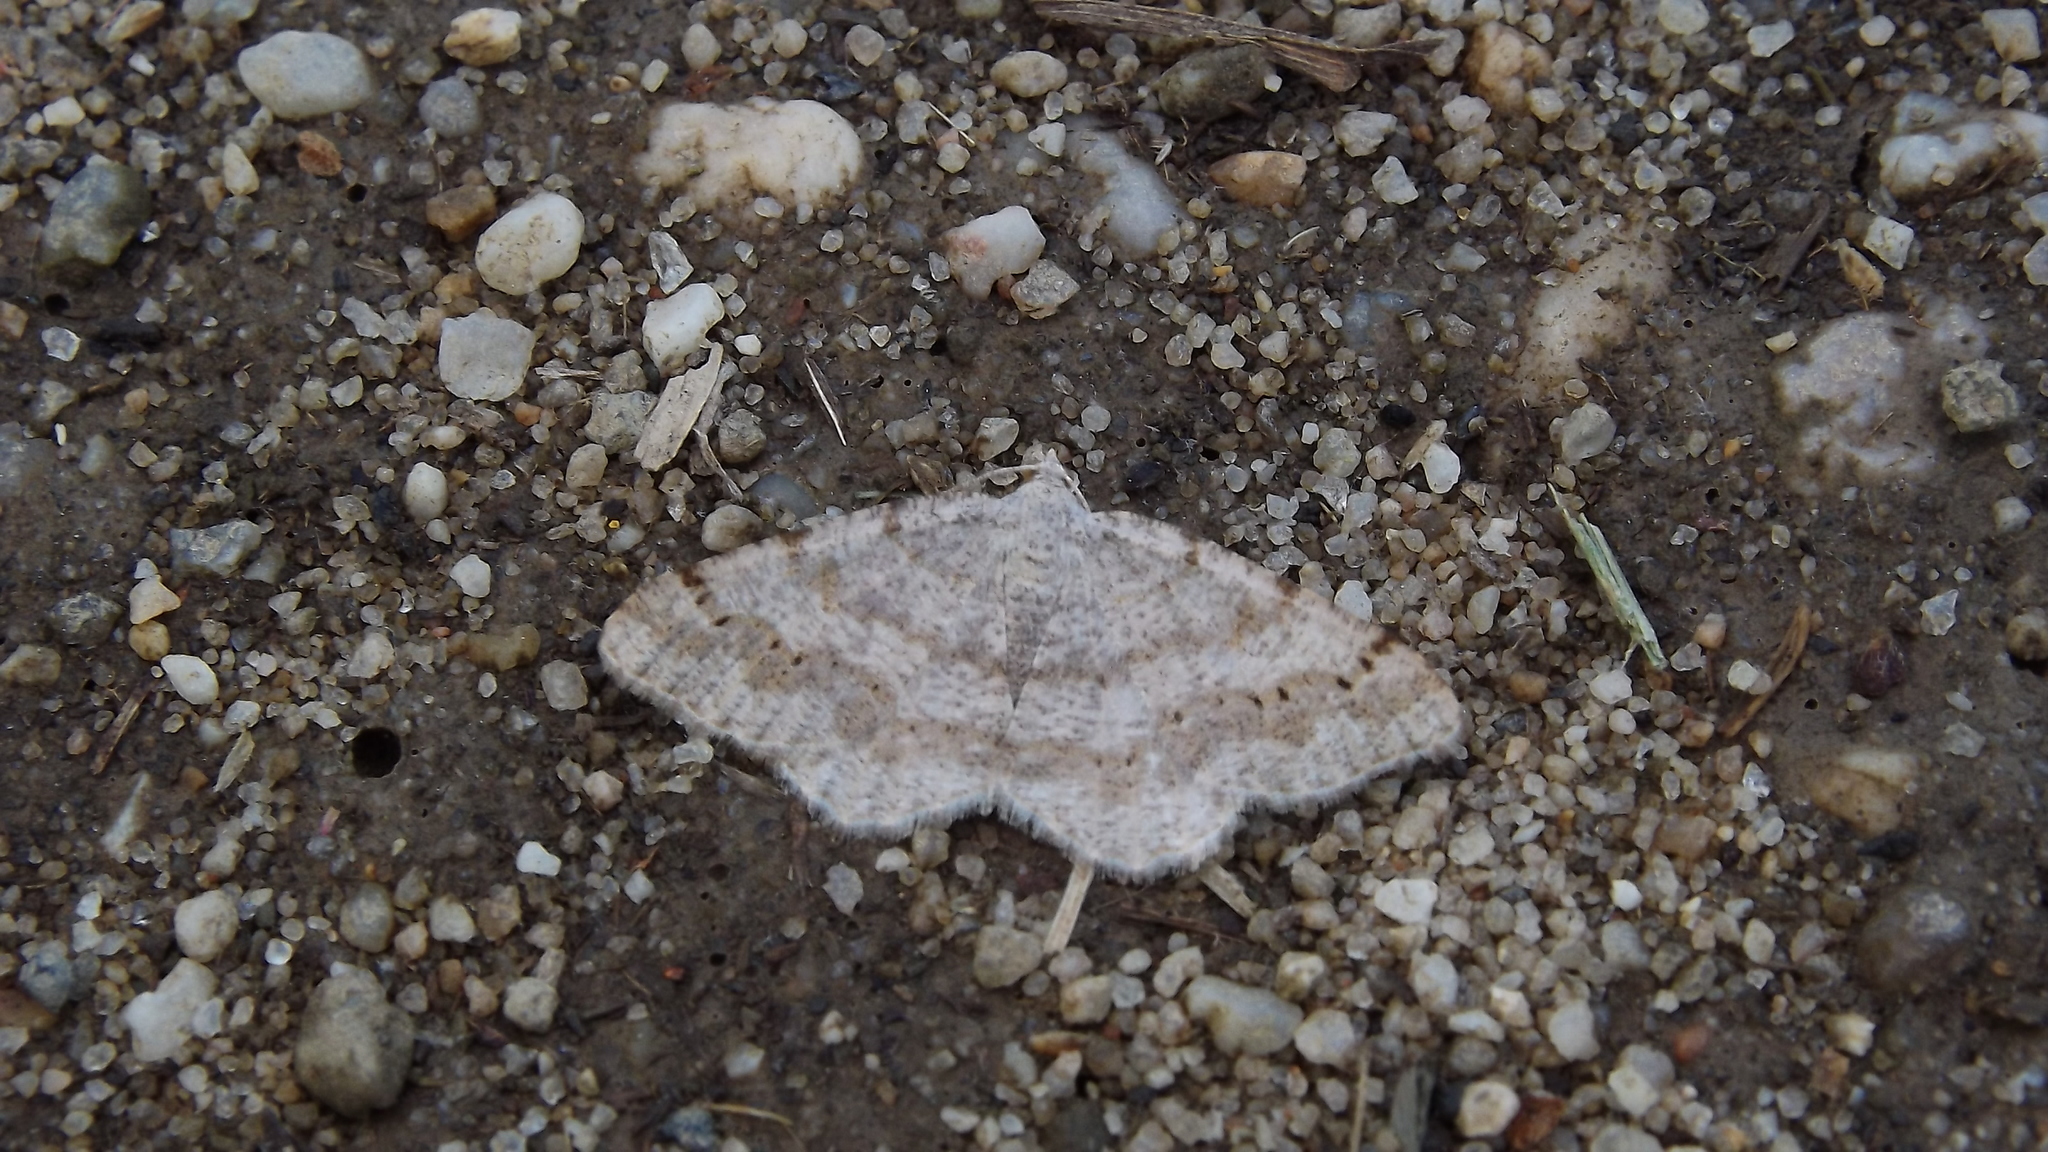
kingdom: Animalia
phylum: Arthropoda
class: Insecta
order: Lepidoptera
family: Geometridae
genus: Digrammia
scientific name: Digrammia ocellinata
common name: Faint-spotted angle
